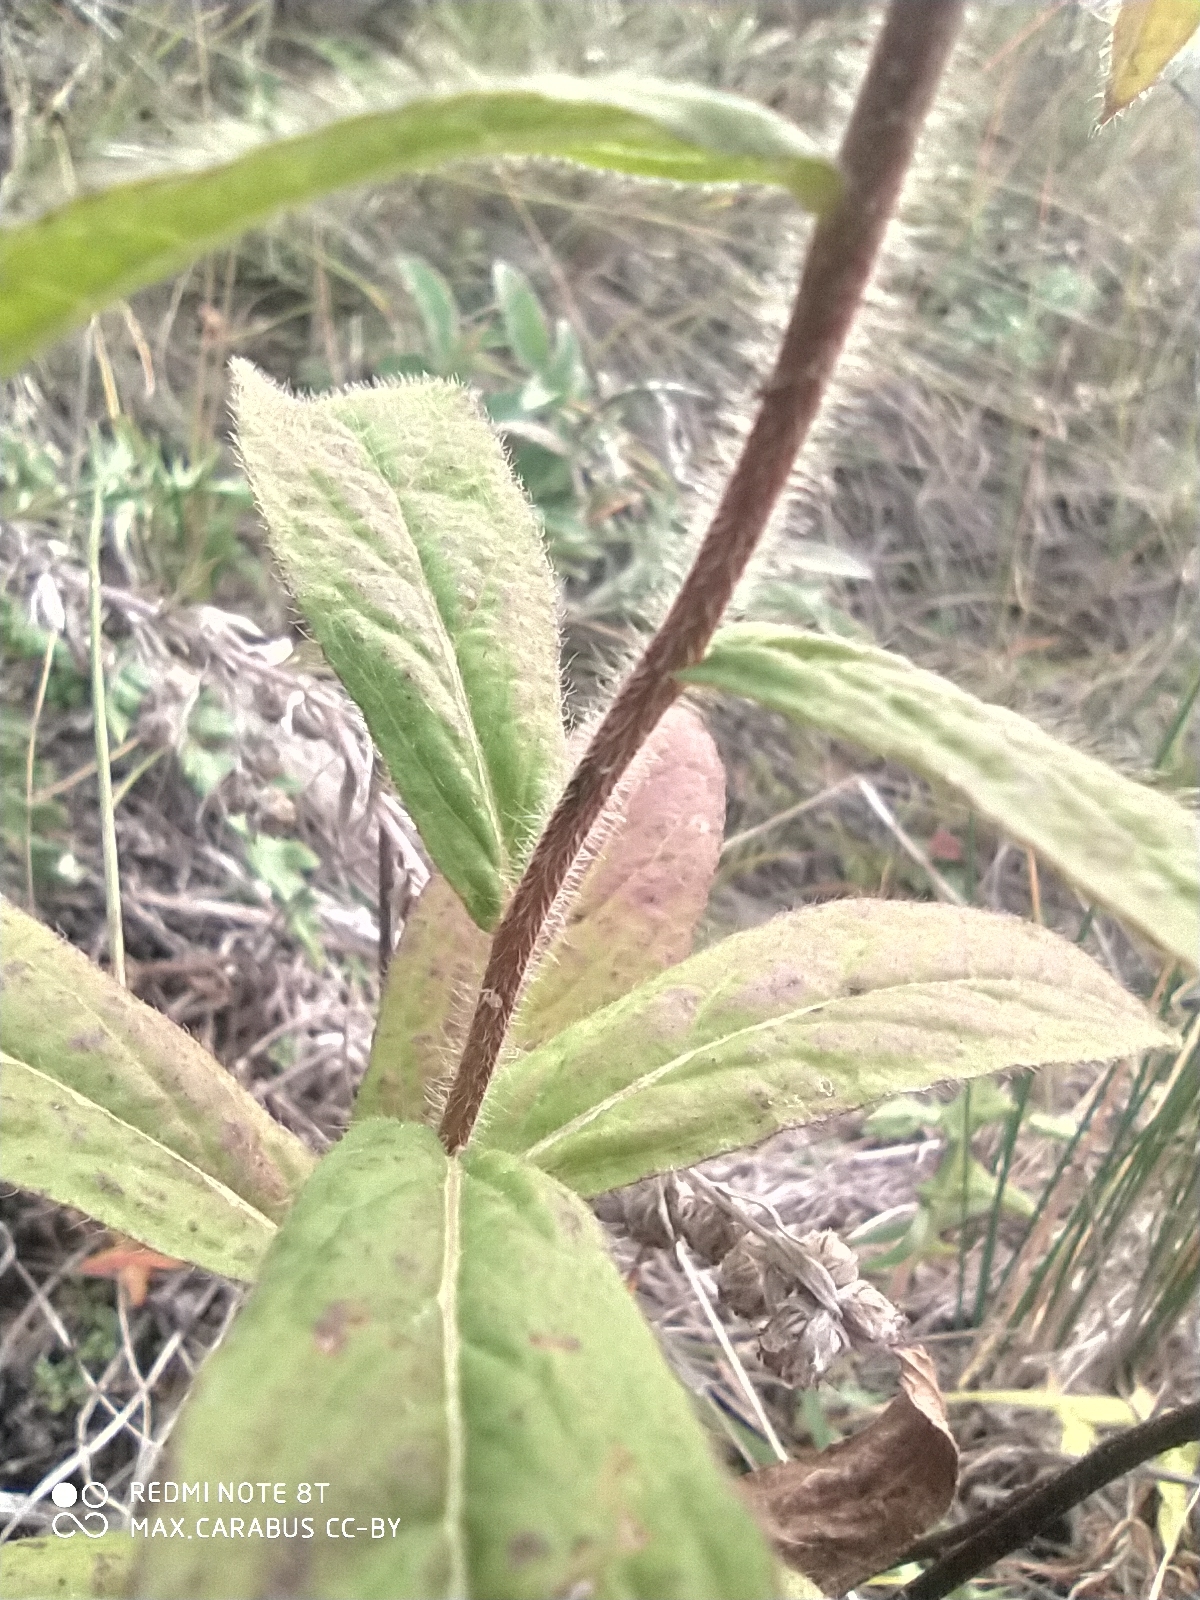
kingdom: Plantae
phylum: Tracheophyta
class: Magnoliopsida
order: Asterales
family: Asteraceae
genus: Pentanema
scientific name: Pentanema hirtum
